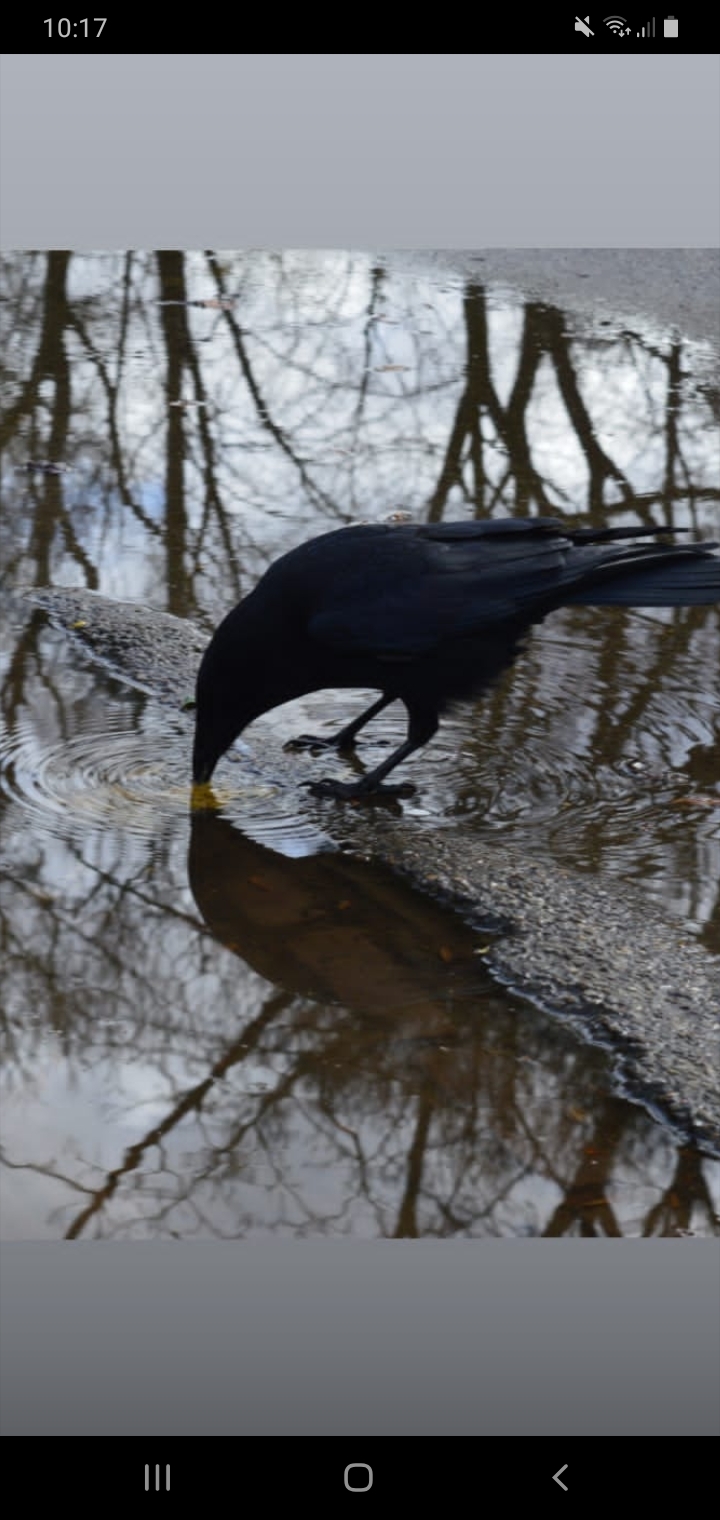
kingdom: Animalia
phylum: Chordata
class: Aves
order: Passeriformes
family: Corvidae
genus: Corvus
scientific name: Corvus corone
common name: Carrion crow
